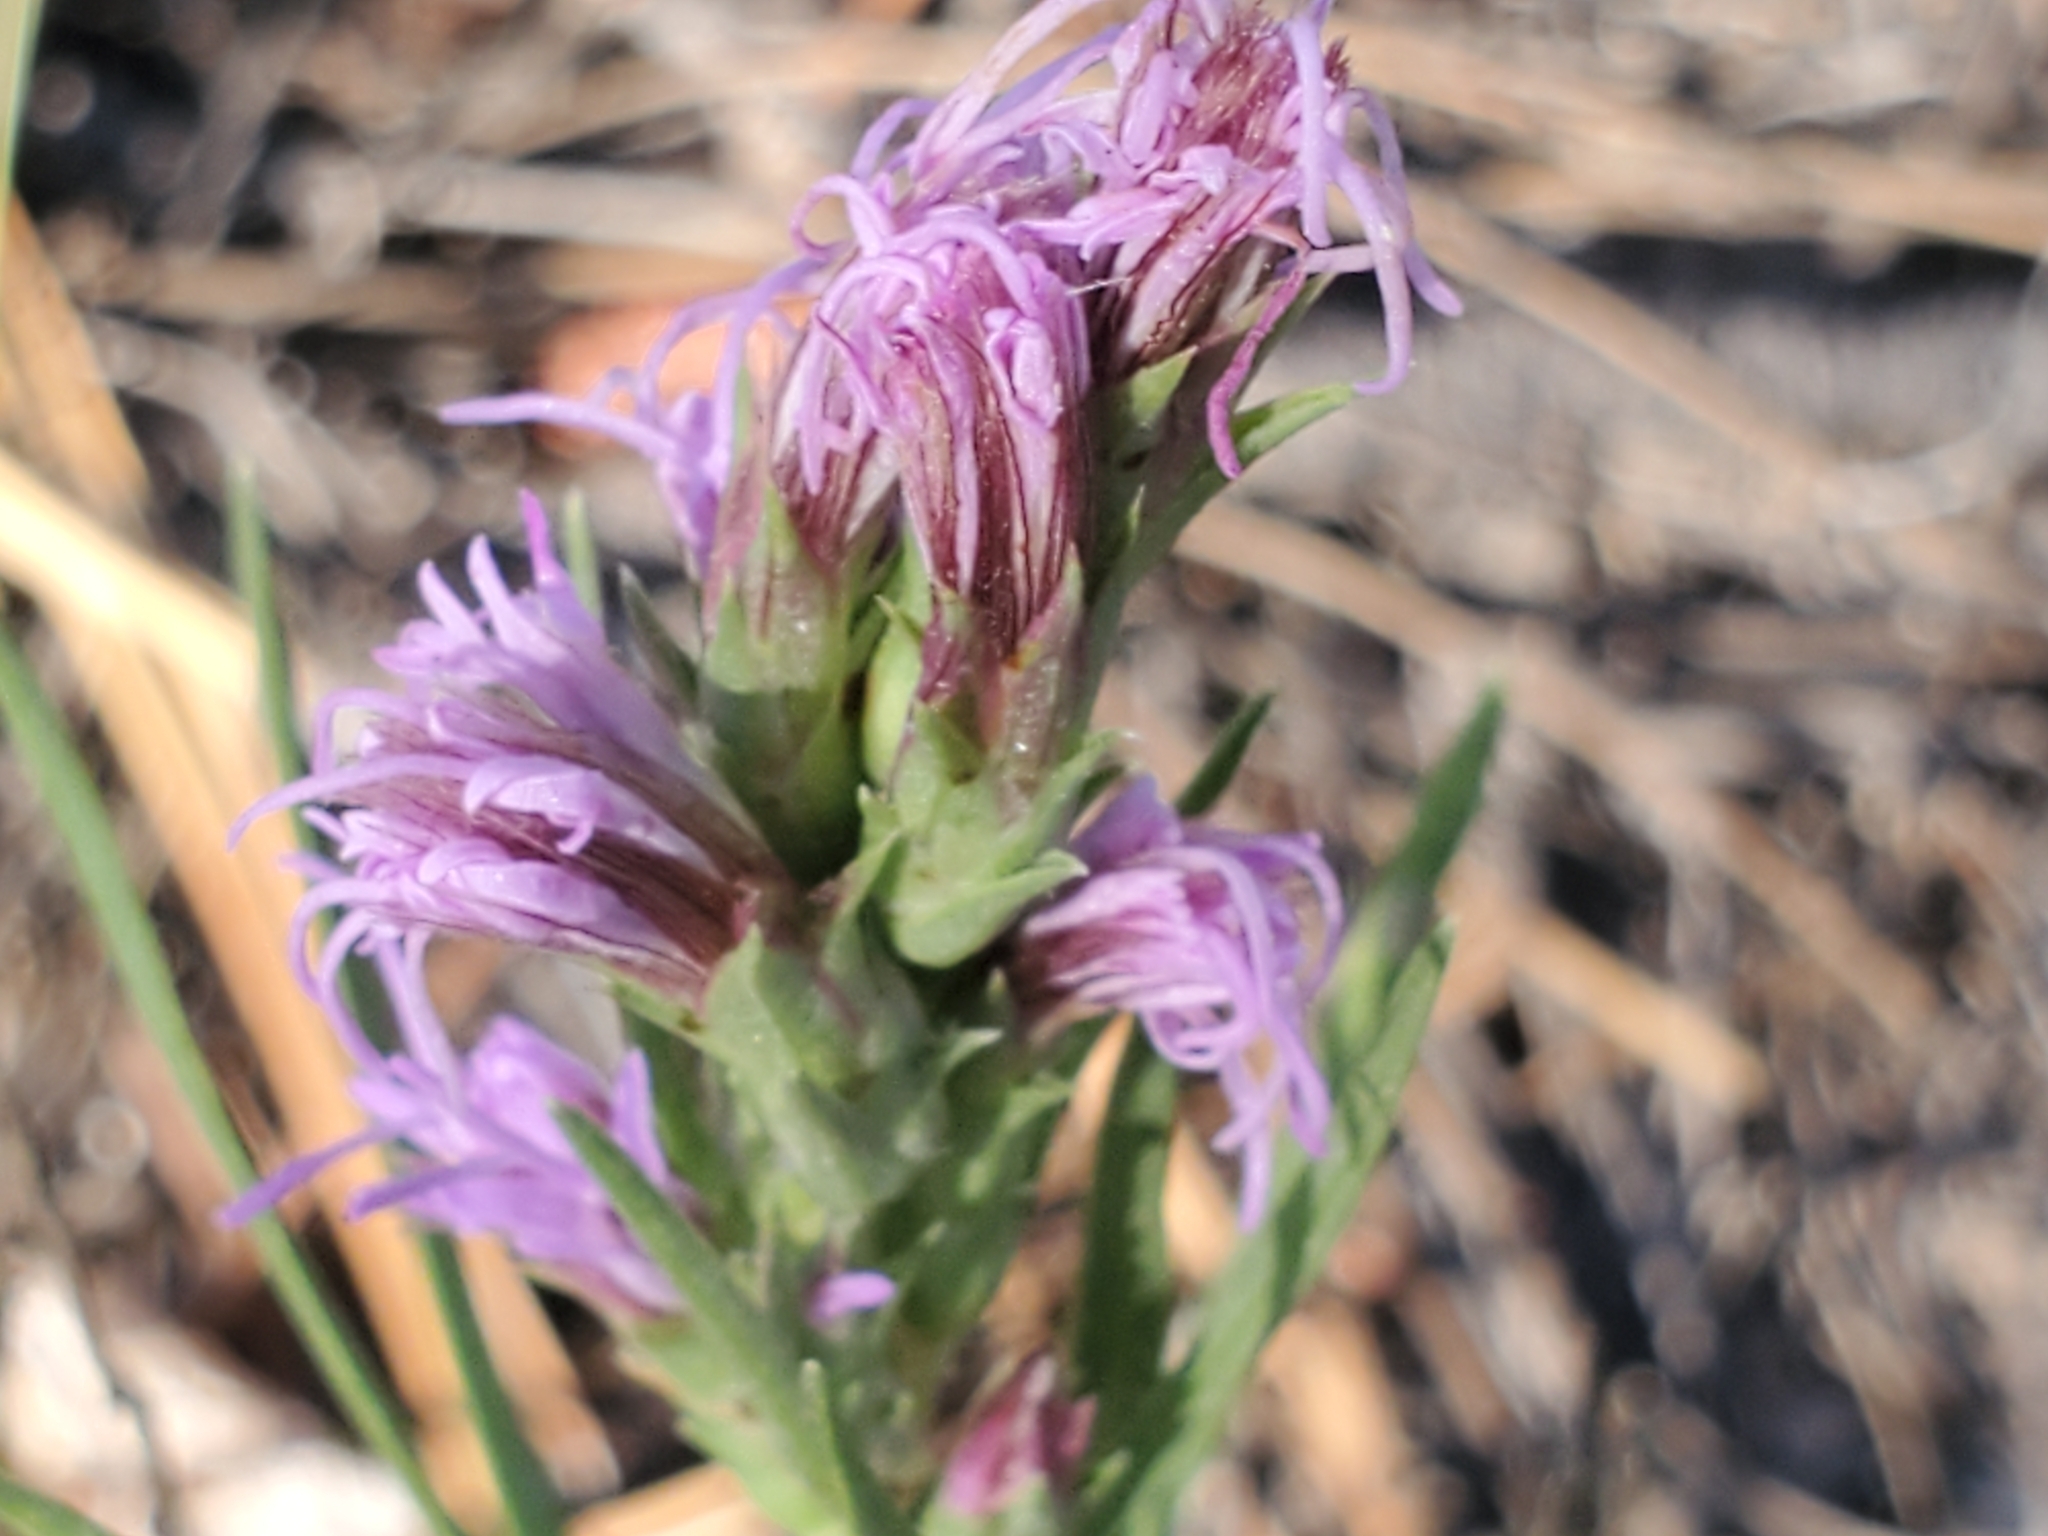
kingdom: Plantae
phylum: Tracheophyta
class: Magnoliopsida
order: Asterales
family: Asteraceae
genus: Liatris
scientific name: Liatris punctata
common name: Dotted gayfeather
